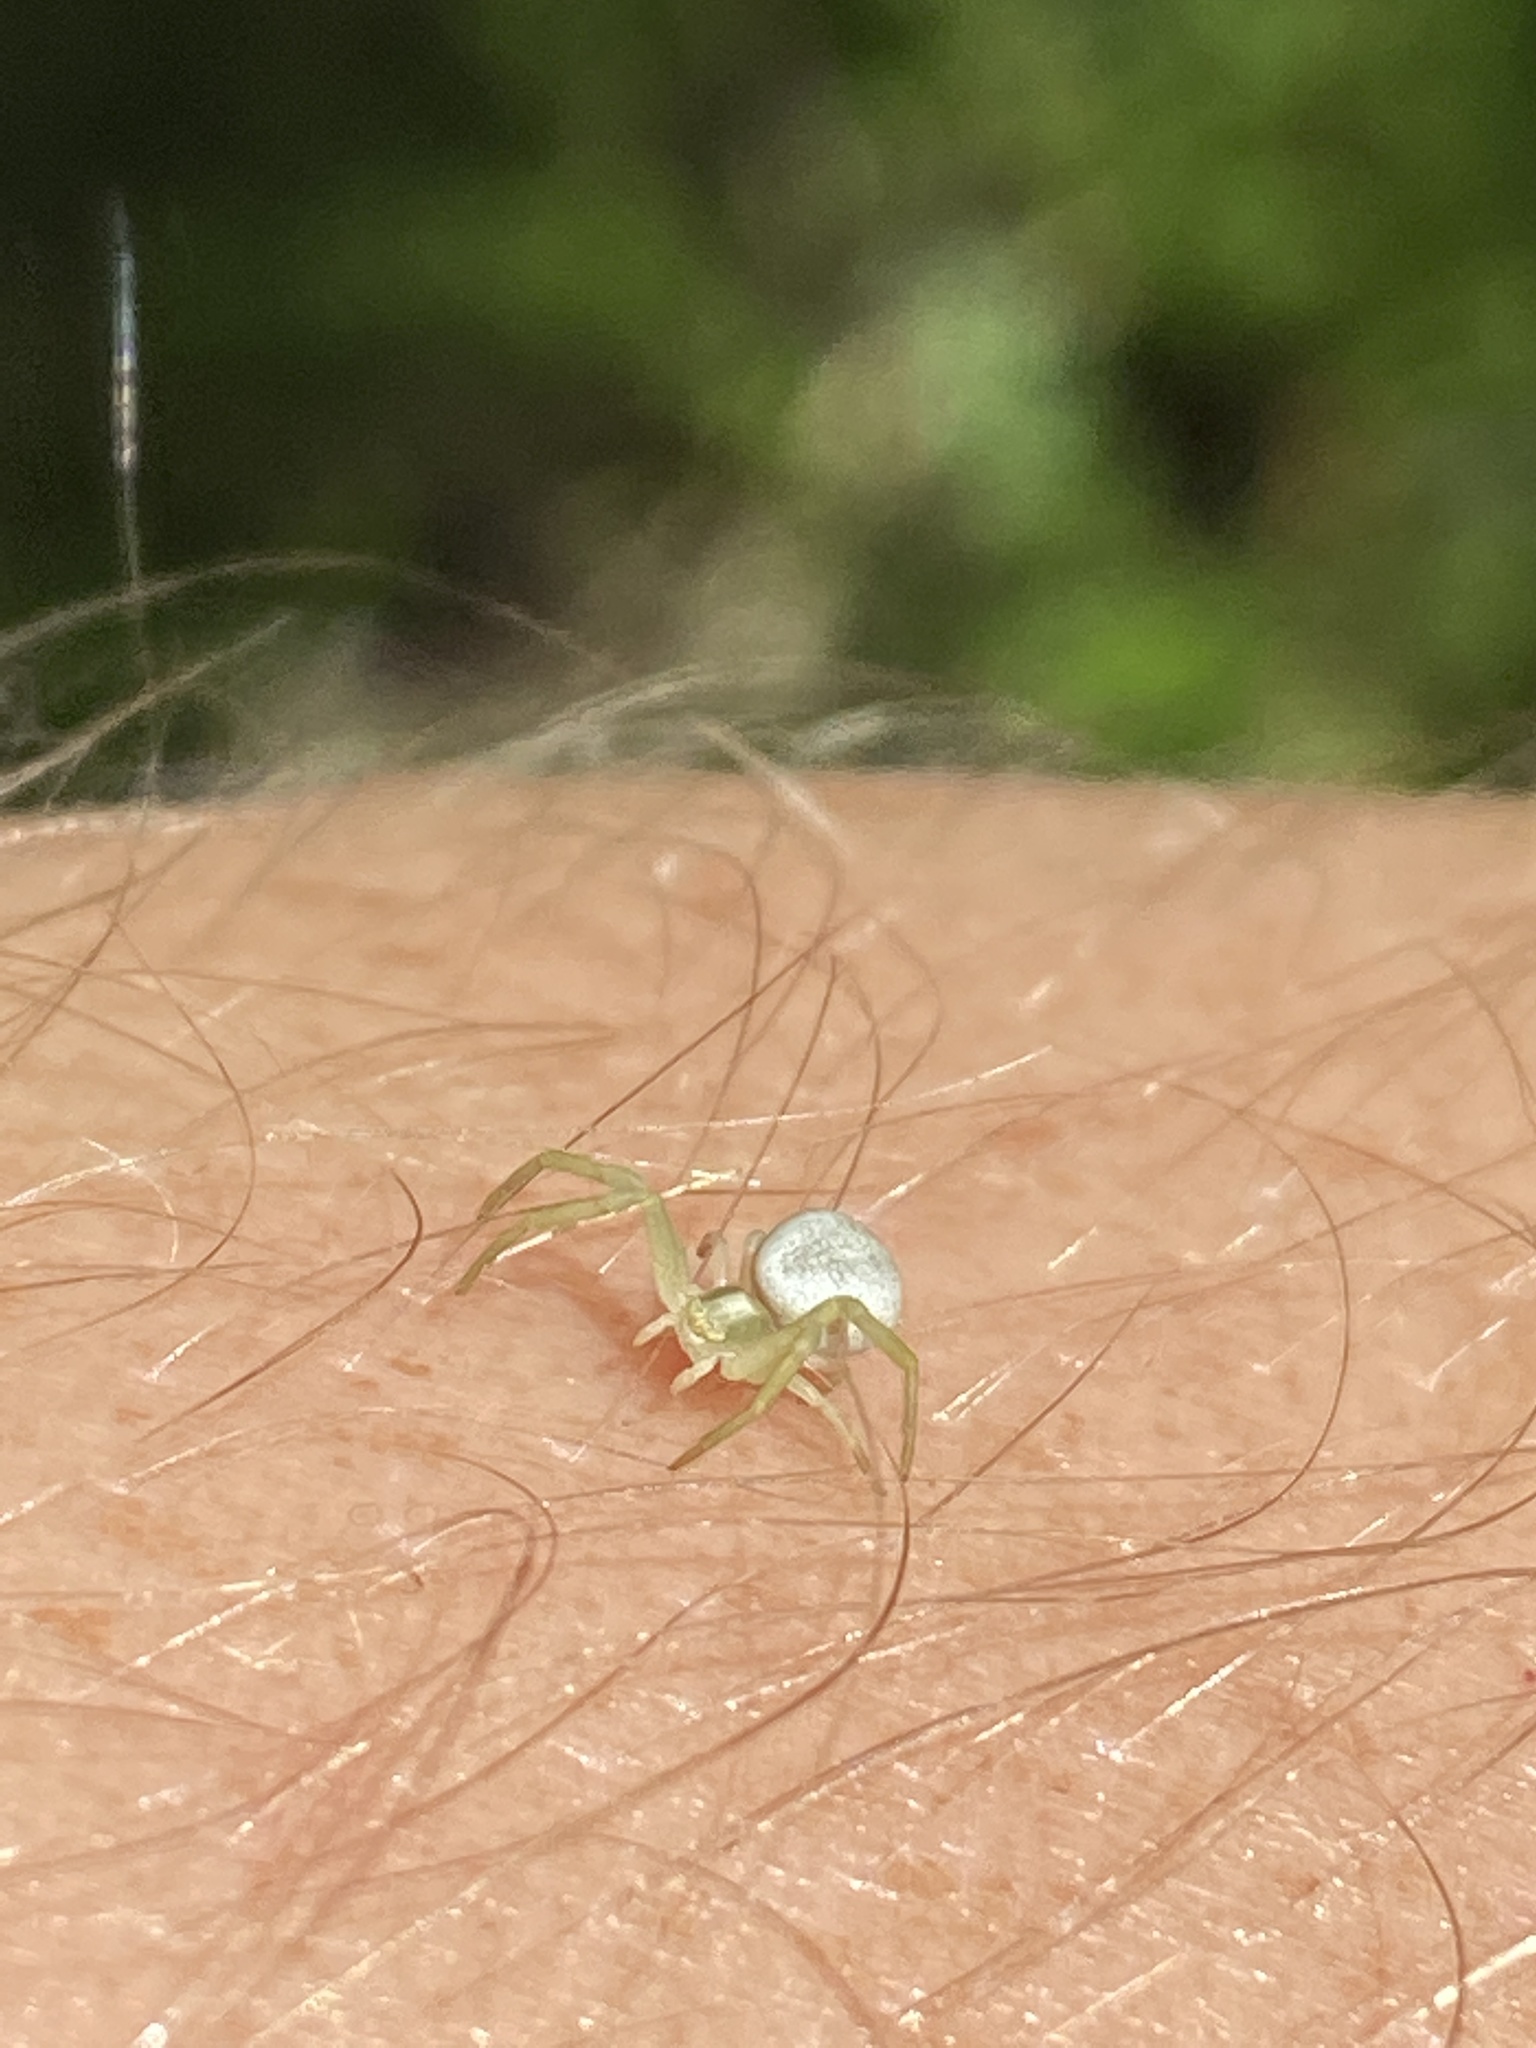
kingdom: Animalia
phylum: Arthropoda
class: Arachnida
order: Araneae
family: Thomisidae
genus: Misumena
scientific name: Misumena vatia
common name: Goldenrod crab spider
